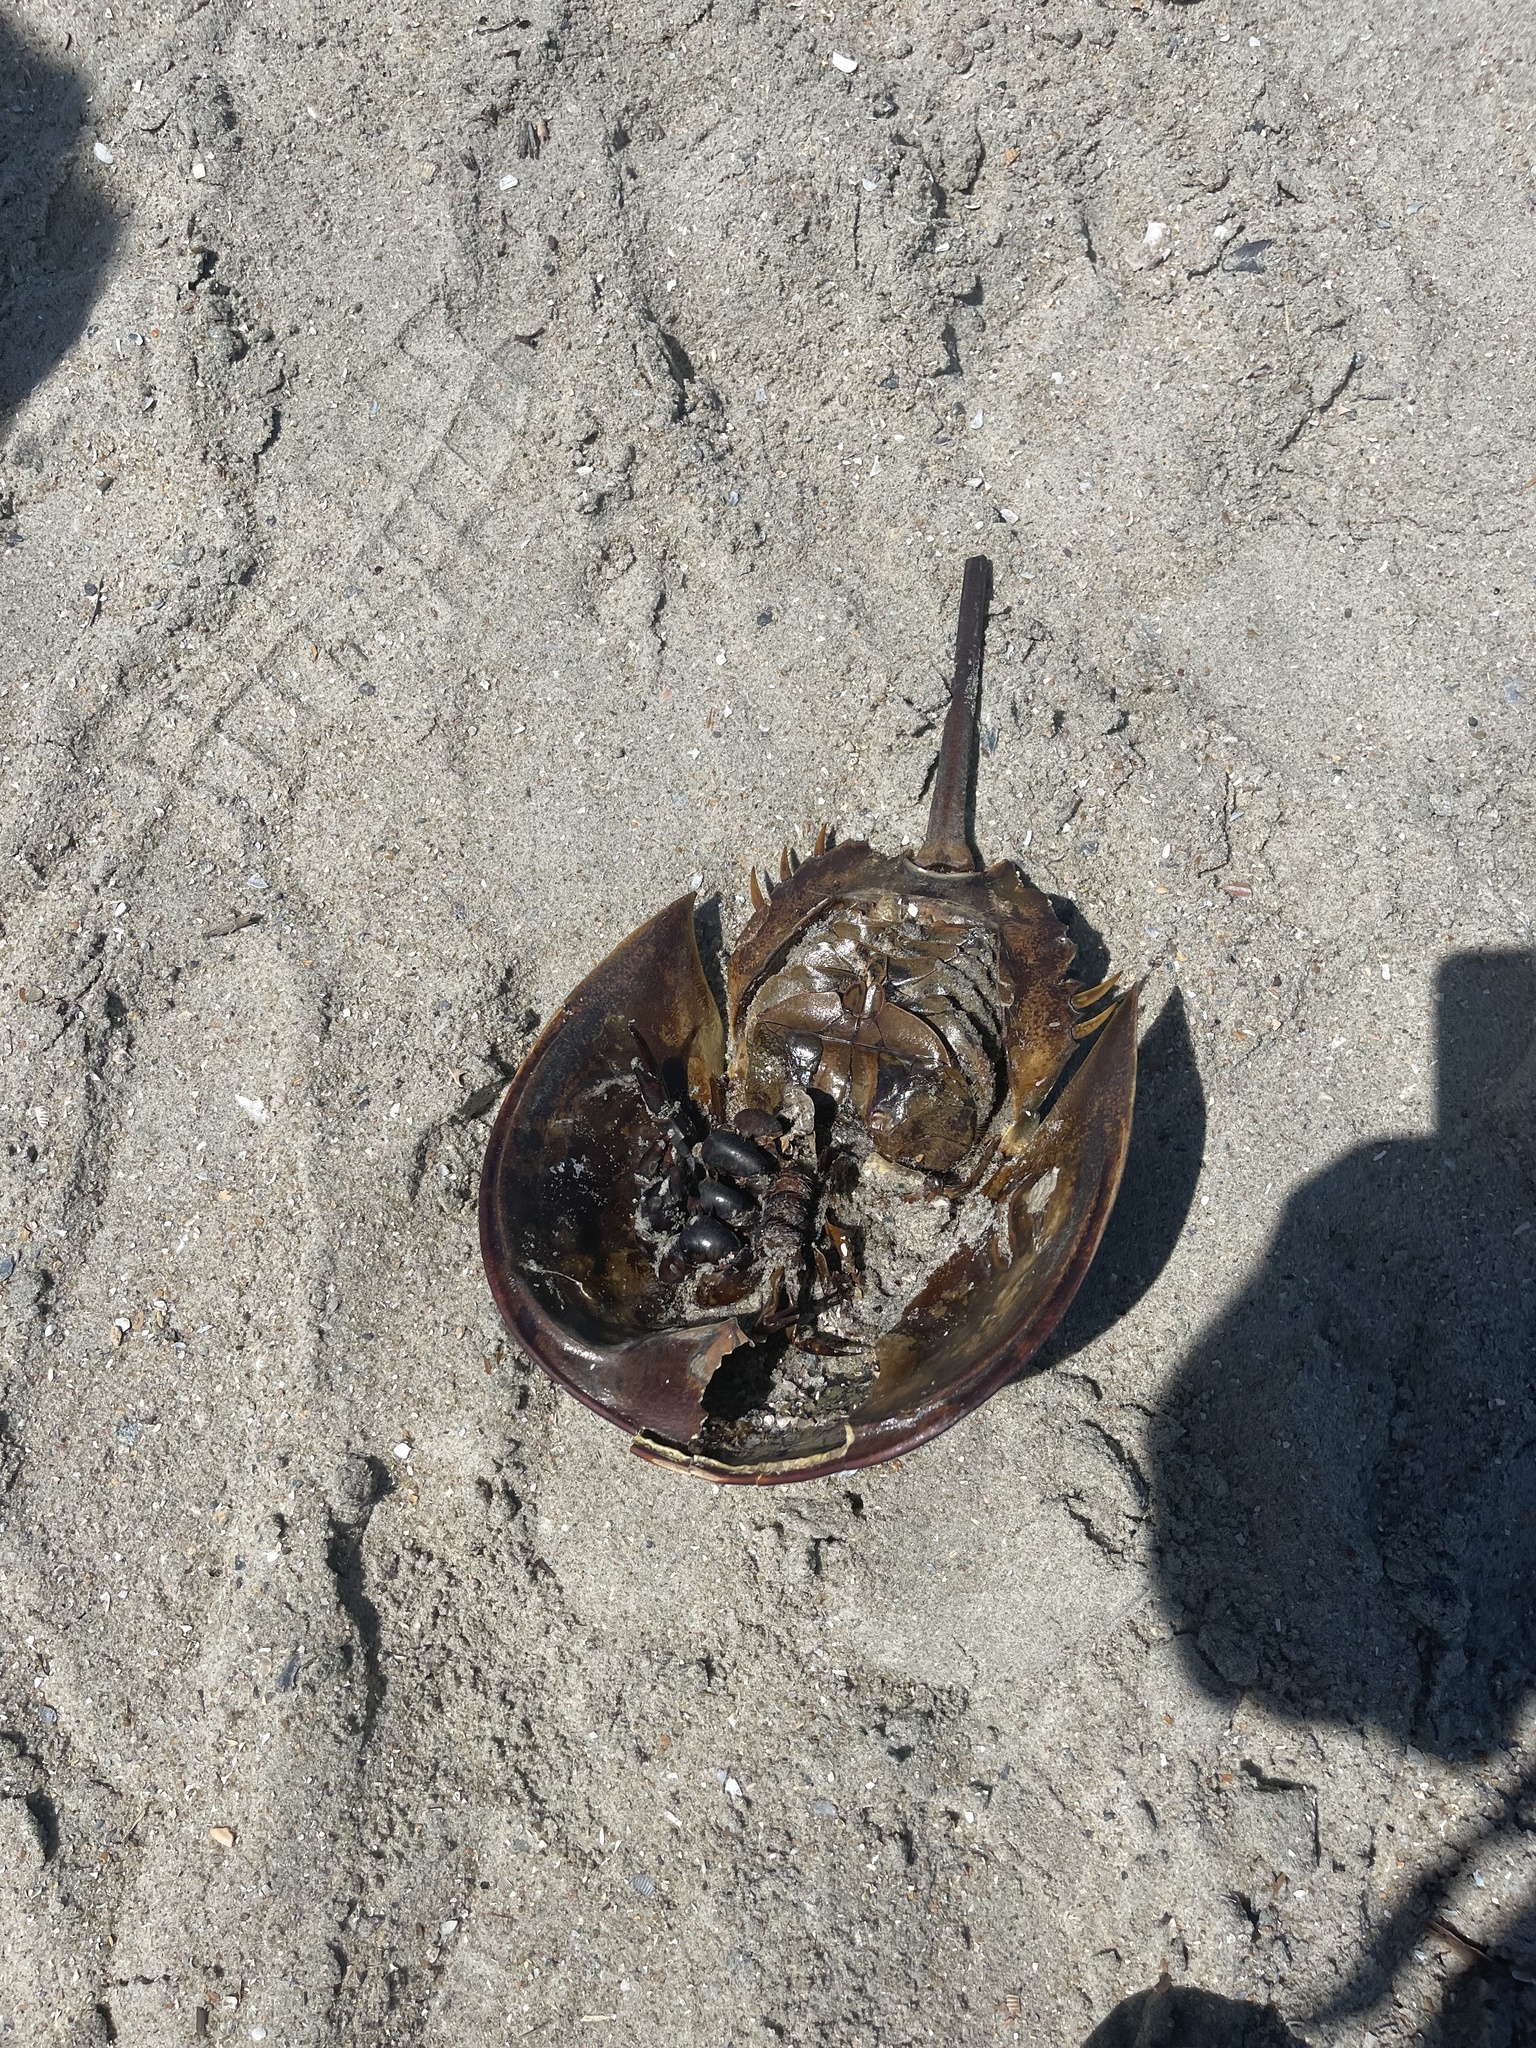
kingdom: Animalia
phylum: Arthropoda
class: Merostomata
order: Xiphosurida
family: Limulidae
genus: Limulus
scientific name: Limulus polyphemus
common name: Horseshoe crab
